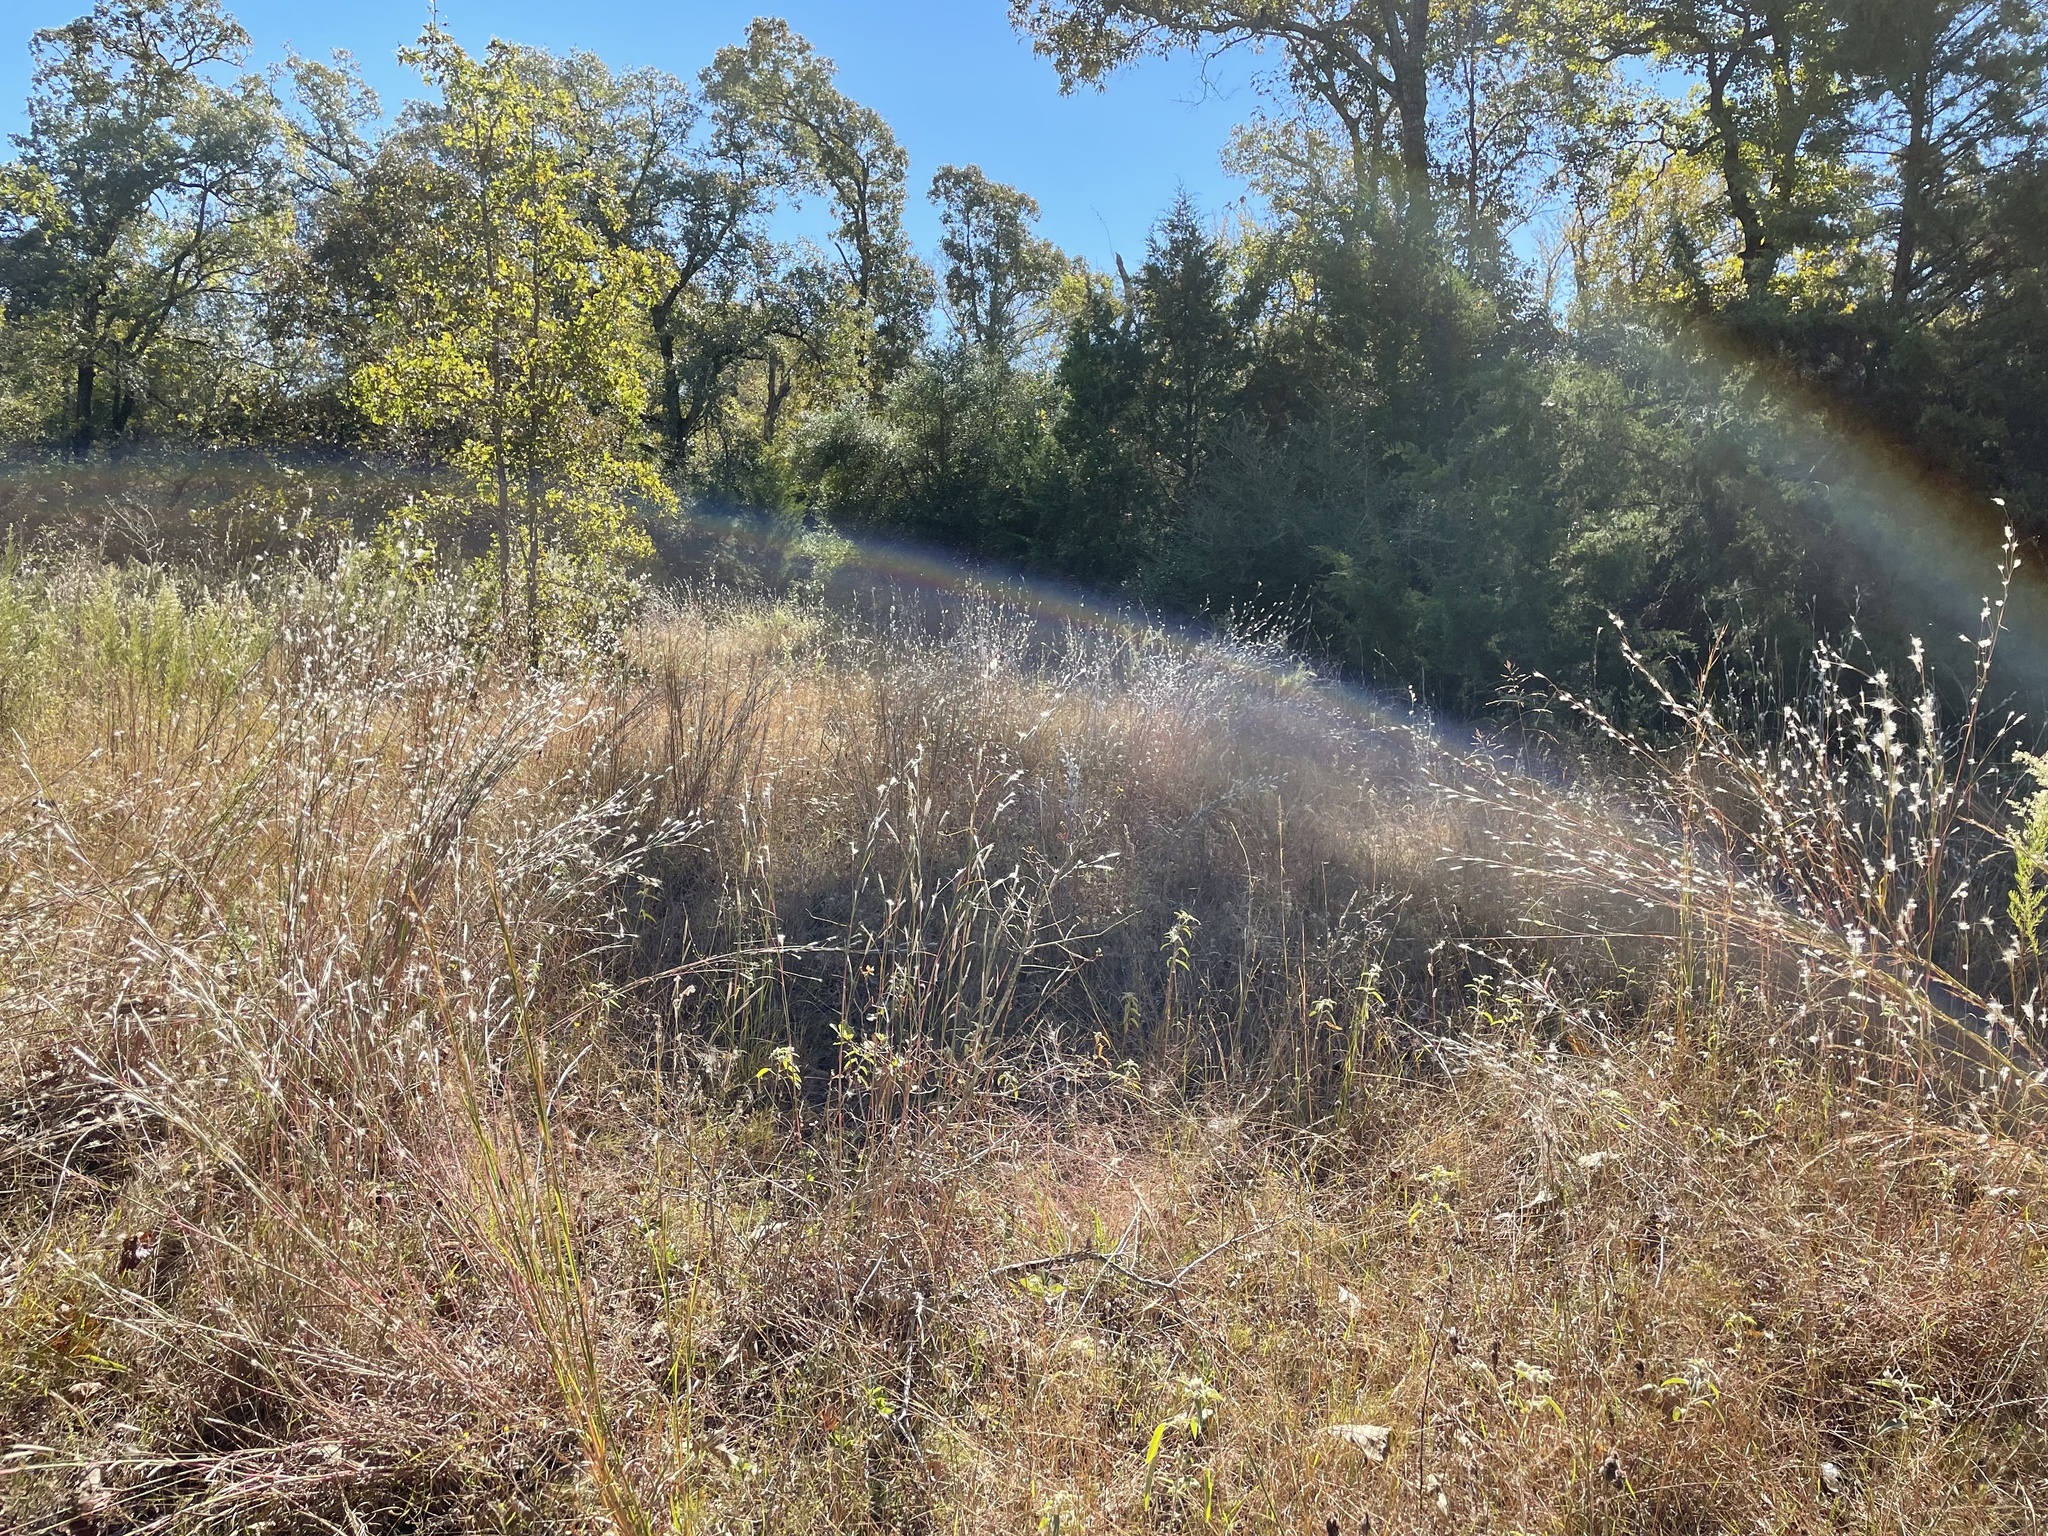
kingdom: Plantae
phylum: Tracheophyta
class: Liliopsida
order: Poales
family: Poaceae
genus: Andropogon
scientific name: Andropogon ternarius
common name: Split bluestem
